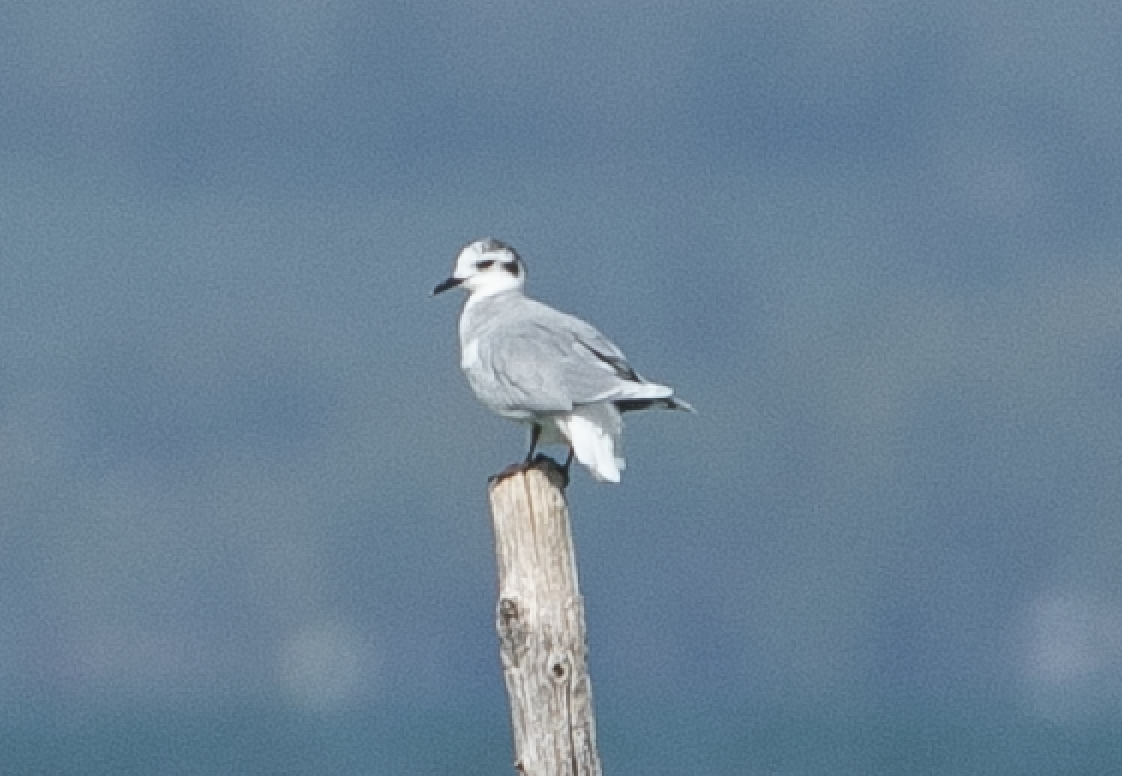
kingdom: Animalia
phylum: Chordata
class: Aves
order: Charadriiformes
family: Laridae
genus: Hydrocoloeus
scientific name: Hydrocoloeus minutus
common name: Little gull
